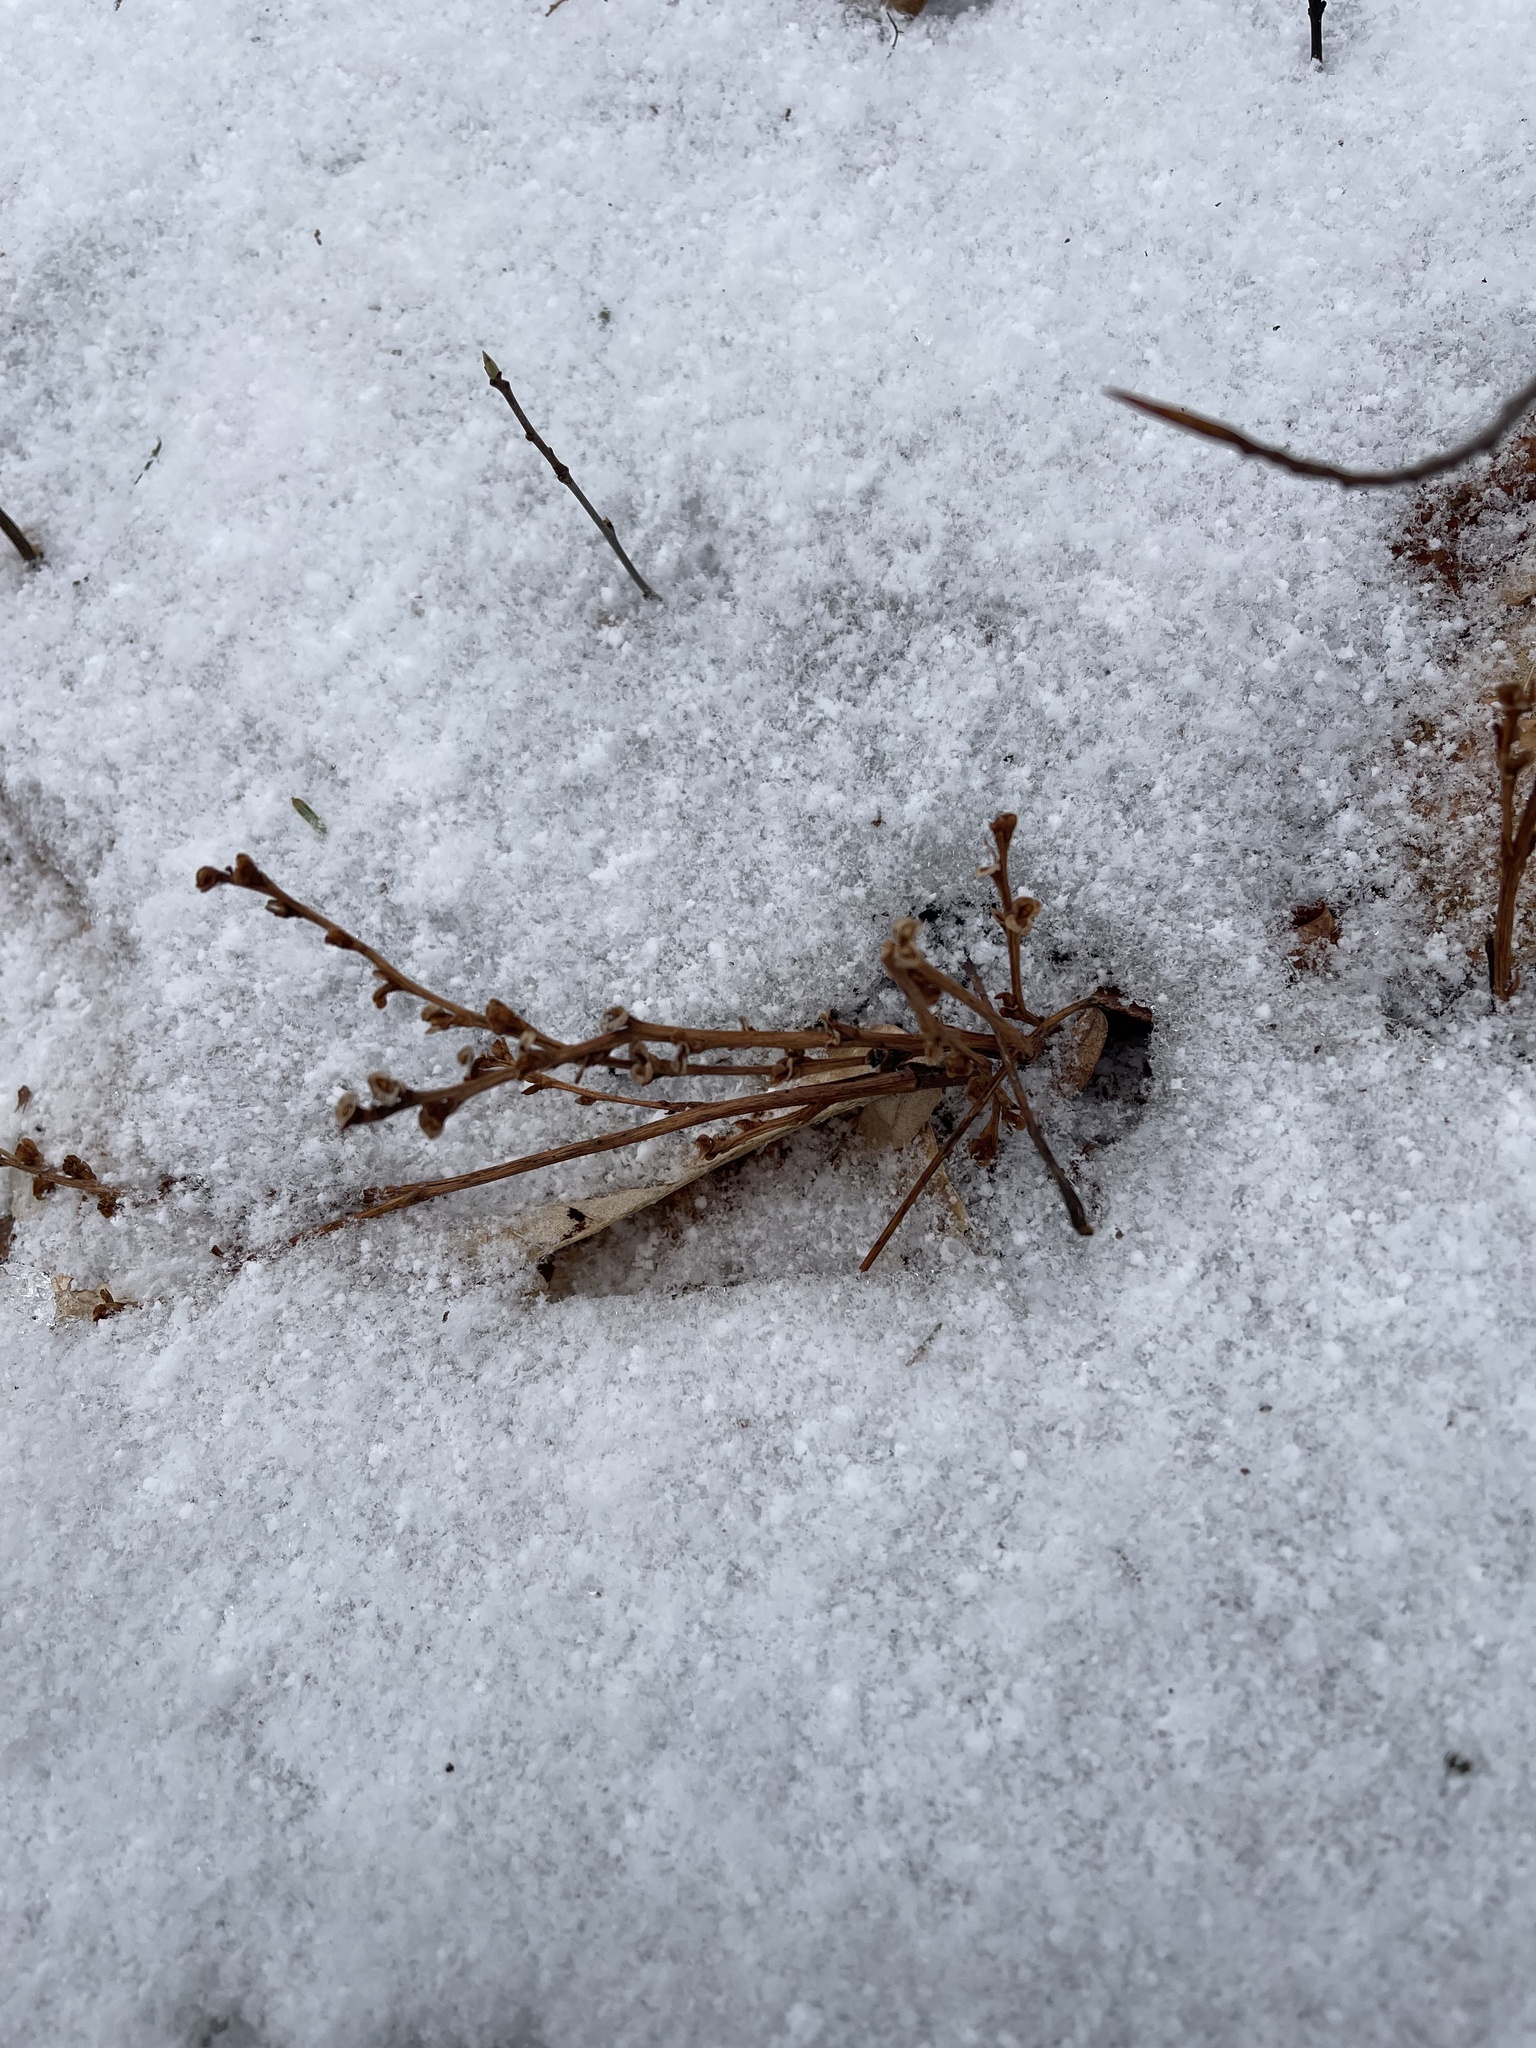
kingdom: Plantae
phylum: Tracheophyta
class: Magnoliopsida
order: Lamiales
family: Orobanchaceae
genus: Epifagus
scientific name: Epifagus virginiana
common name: Beechdrops
